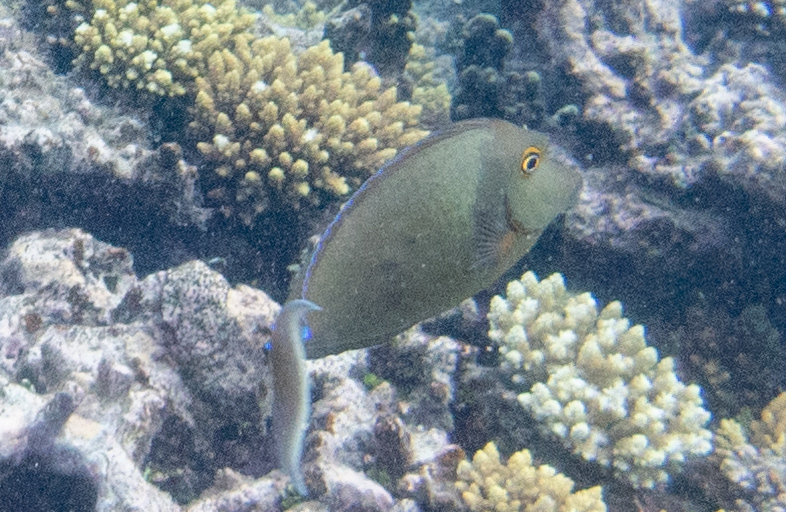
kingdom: Animalia
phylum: Chordata
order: Perciformes
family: Acanthuridae
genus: Naso
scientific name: Naso unicornis
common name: Bluespine unicornfish
